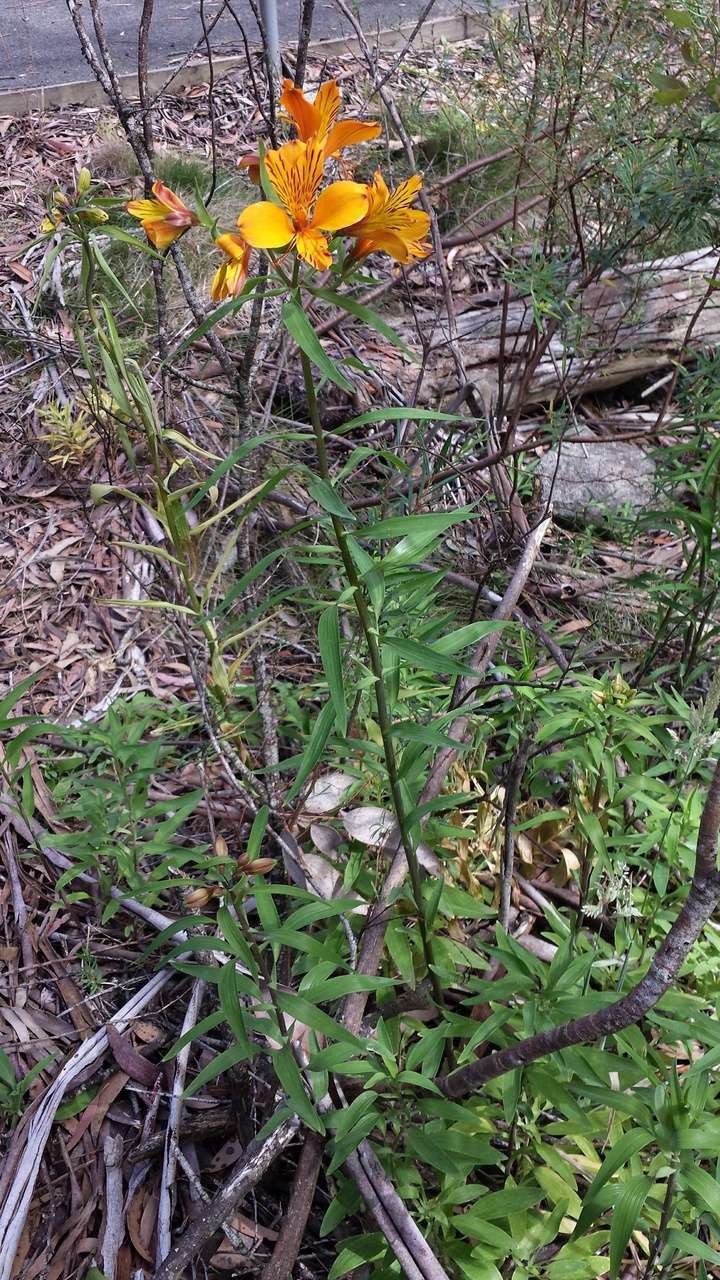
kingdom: Plantae
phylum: Tracheophyta
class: Liliopsida
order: Liliales
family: Alstroemeriaceae
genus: Alstroemeria
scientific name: Alstroemeria aurea
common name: Peruvian lily
